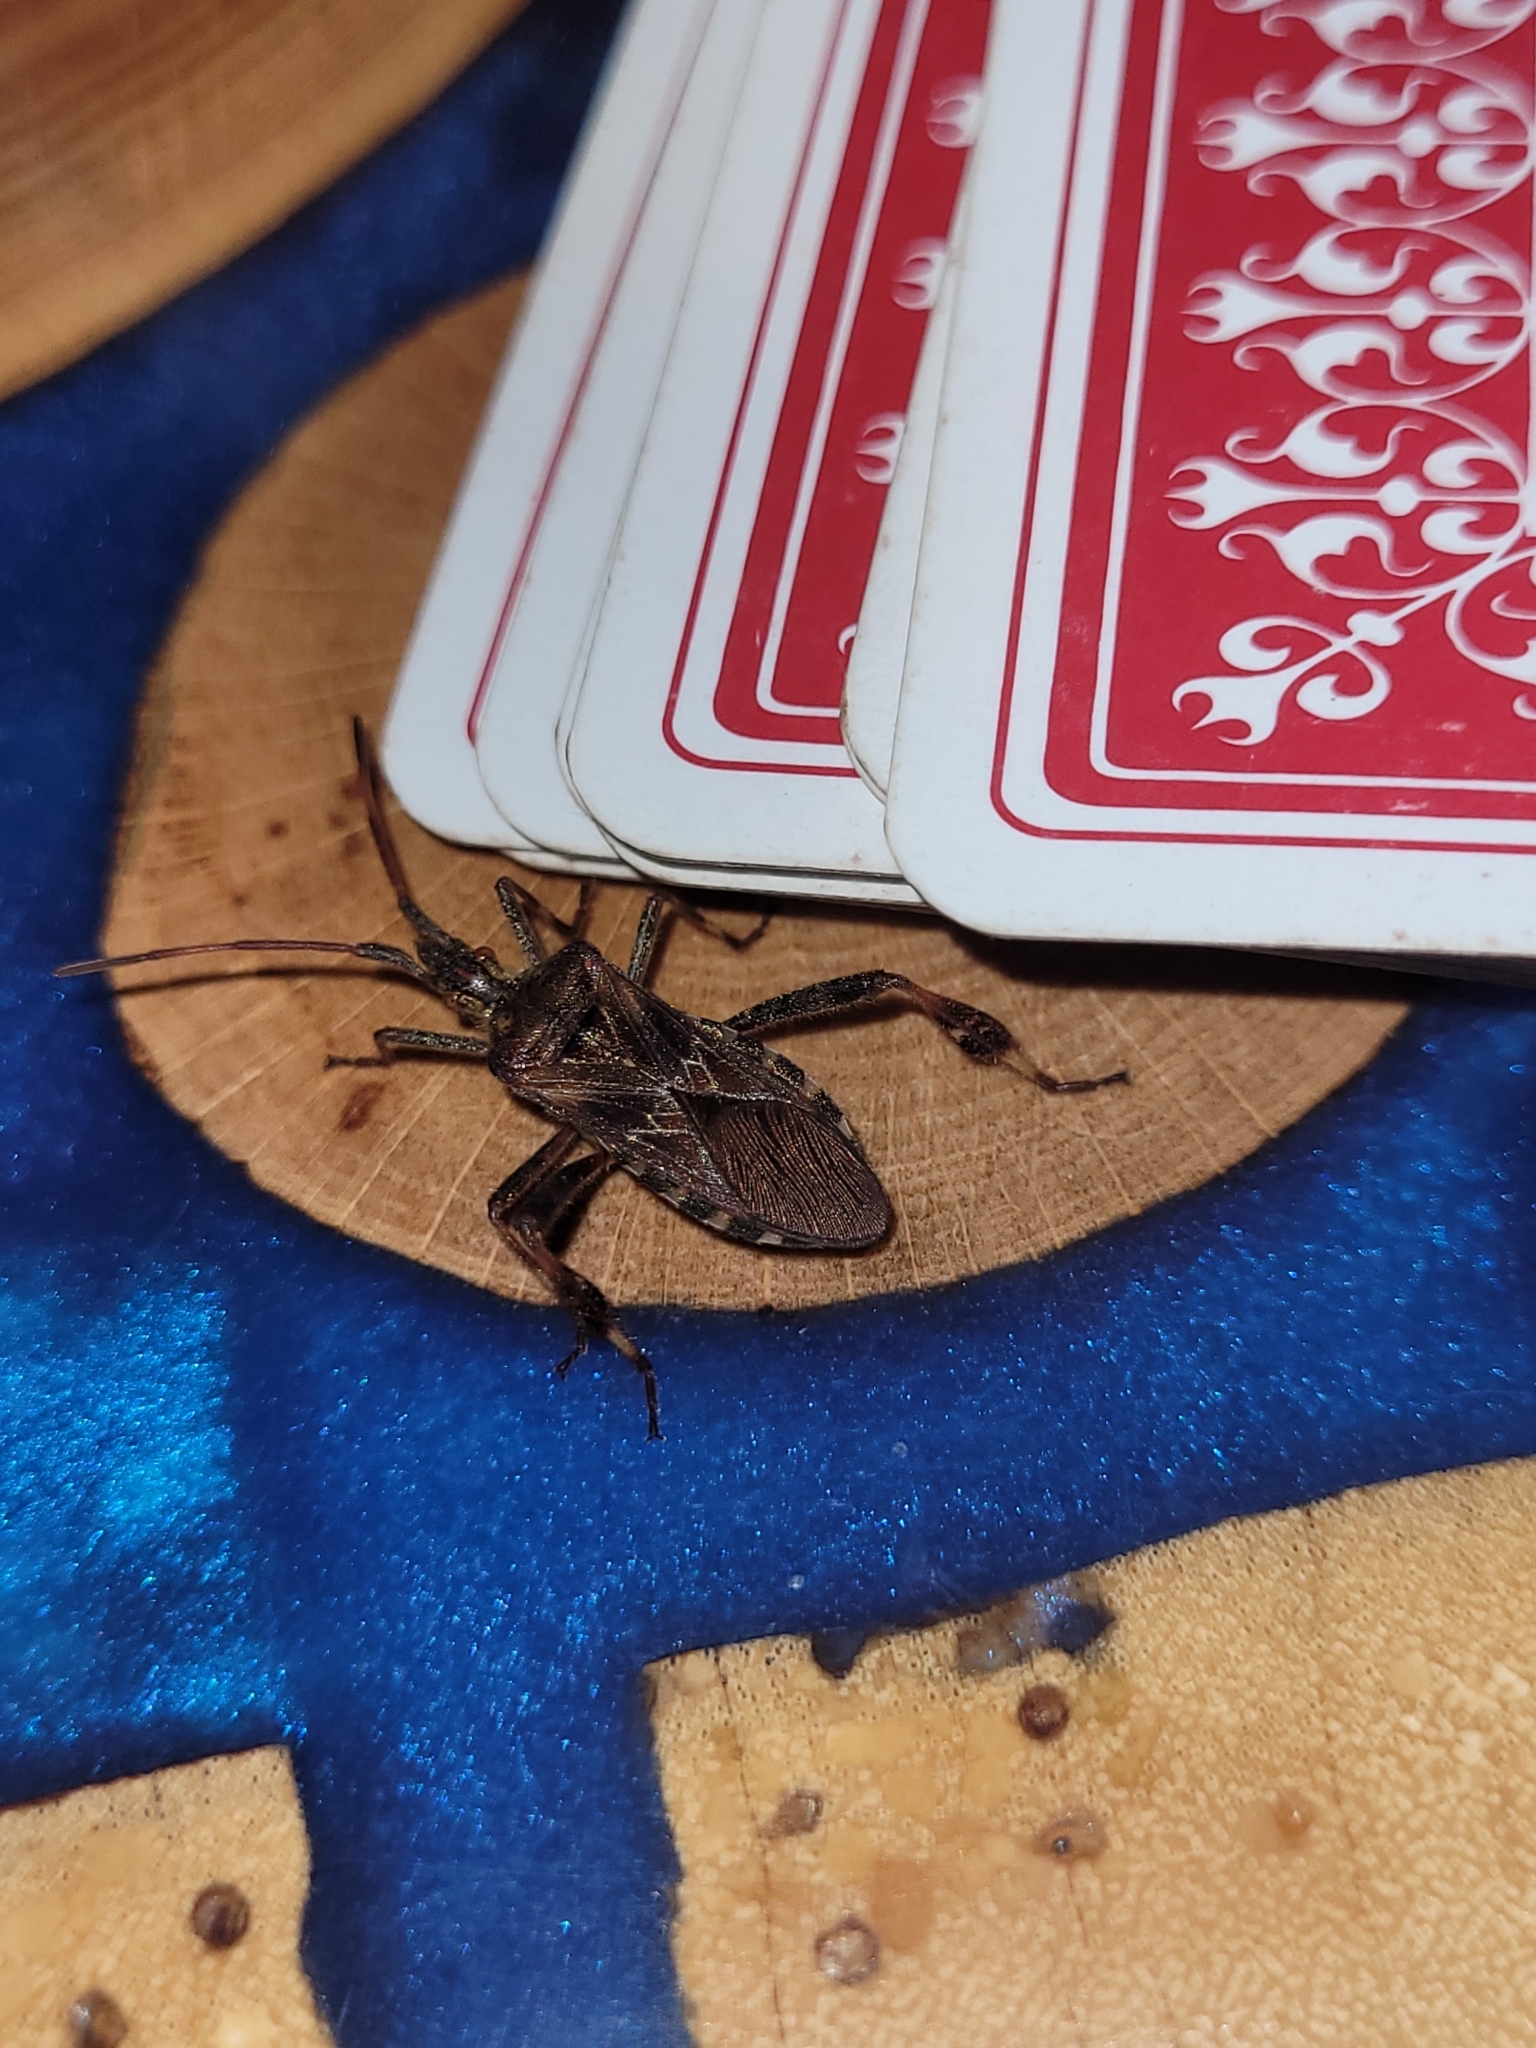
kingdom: Animalia
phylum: Arthropoda
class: Insecta
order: Hemiptera
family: Coreidae
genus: Leptoglossus
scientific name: Leptoglossus occidentalis
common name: Western conifer-seed bug
